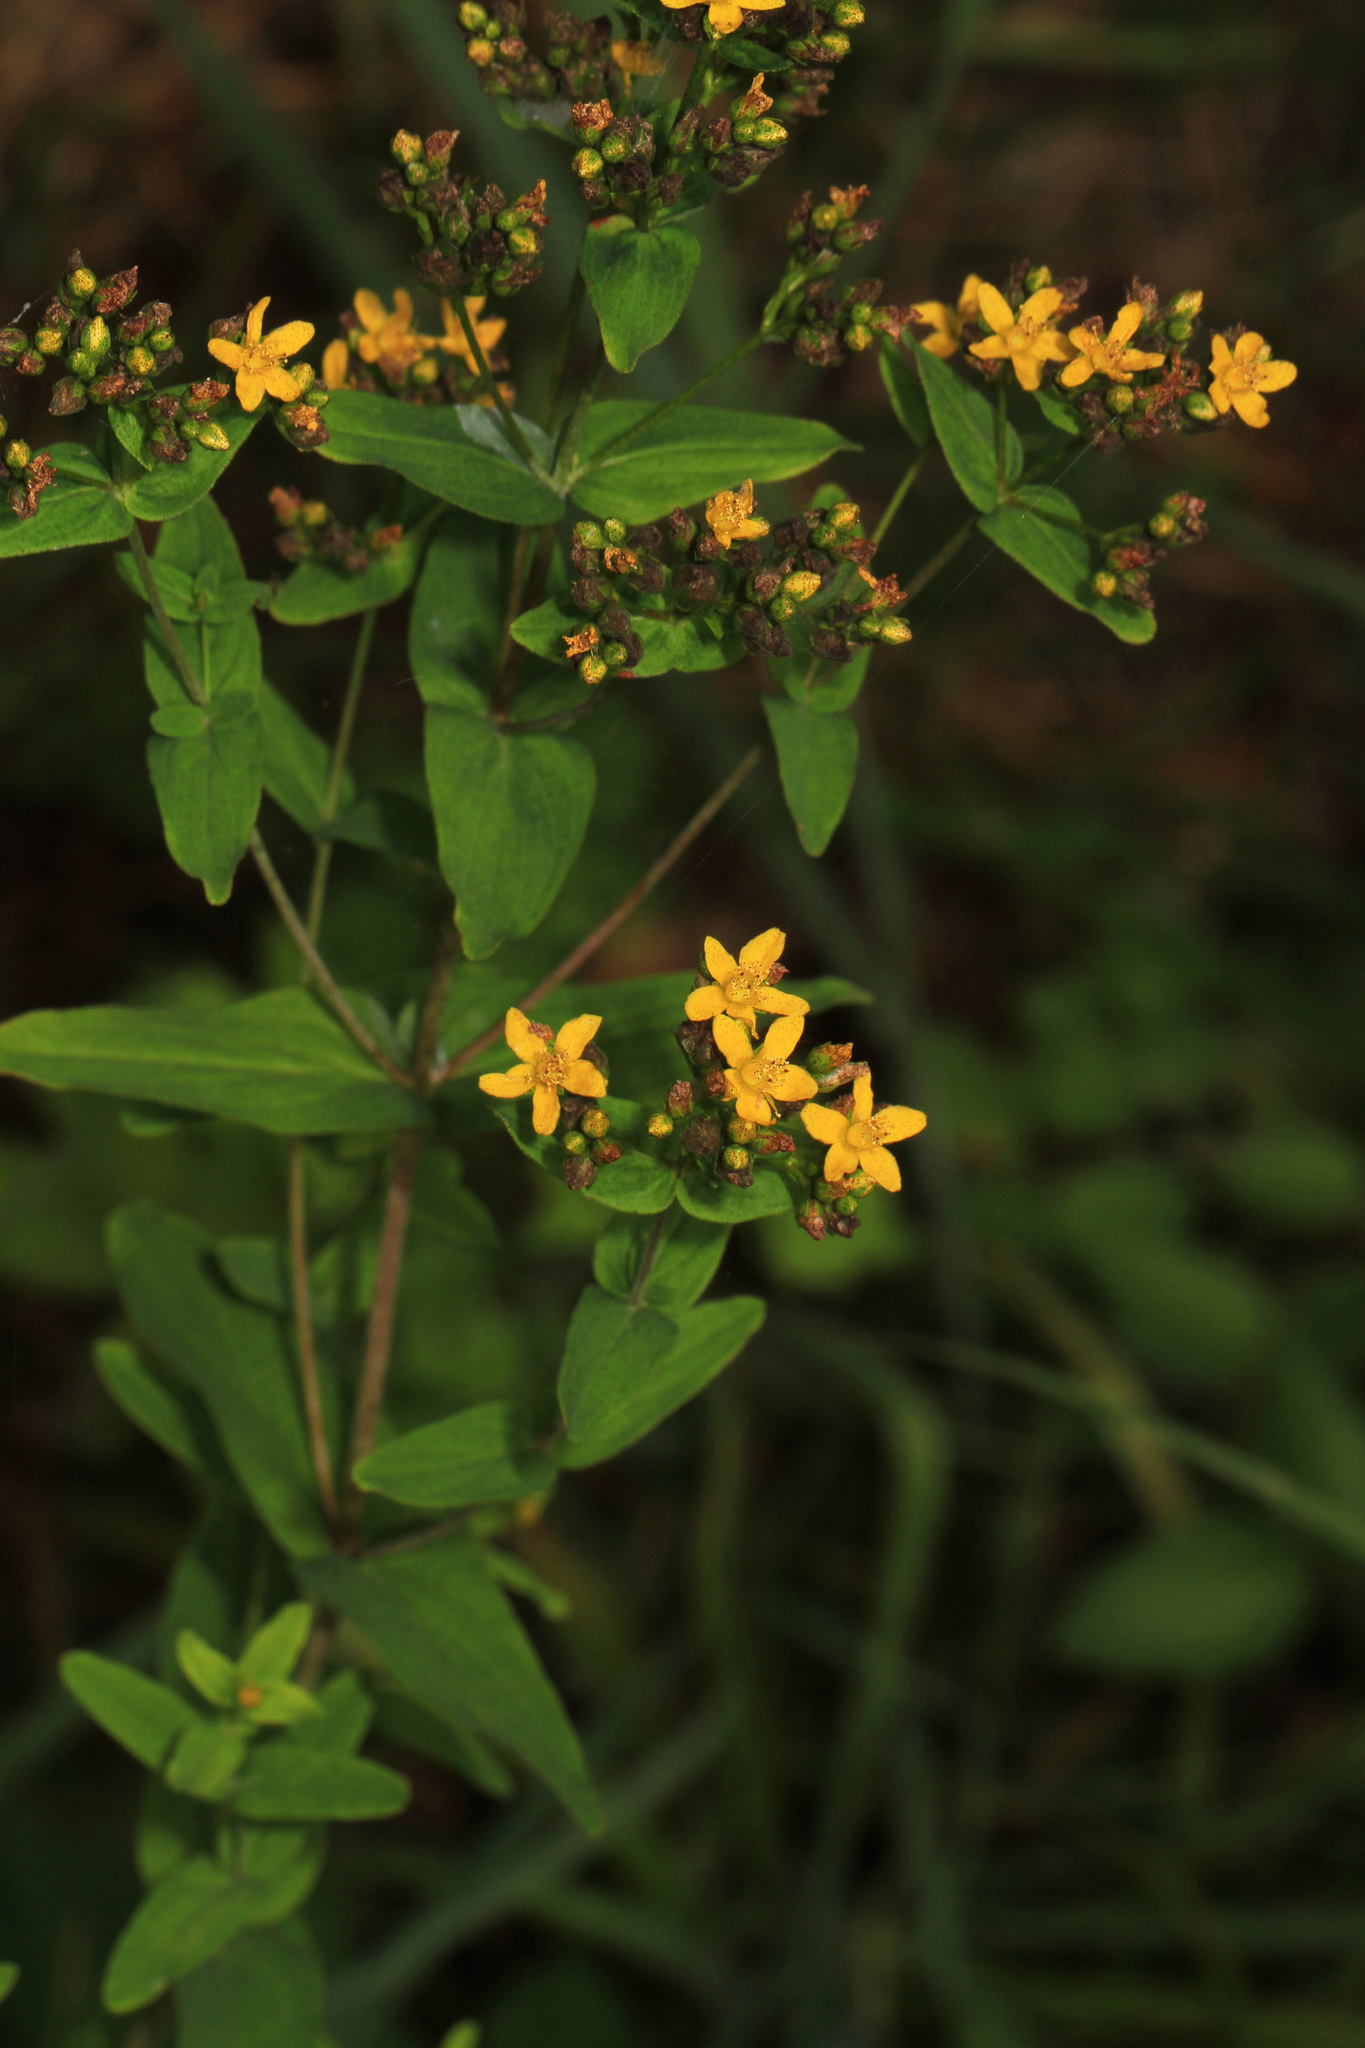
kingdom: Plantae
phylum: Tracheophyta
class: Magnoliopsida
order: Malpighiales
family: Hypericaceae
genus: Hypericum
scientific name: Hypericum punctatum
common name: Spotted st. john's-wort
